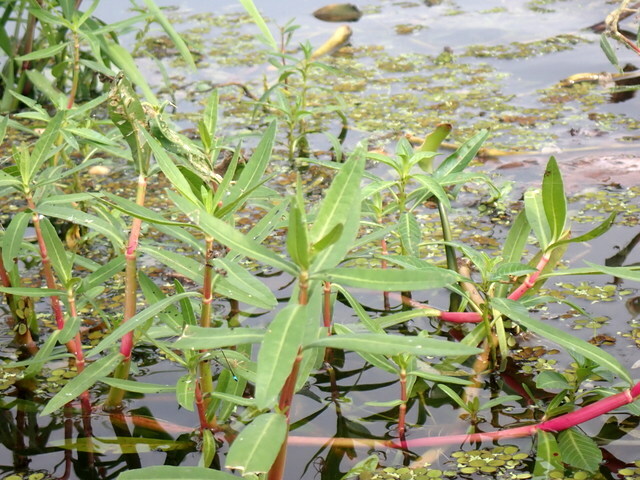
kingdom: Plantae
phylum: Tracheophyta
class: Magnoliopsida
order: Caryophyllales
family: Amaranthaceae
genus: Alternanthera
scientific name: Alternanthera philoxeroides
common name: Alligatorweed
